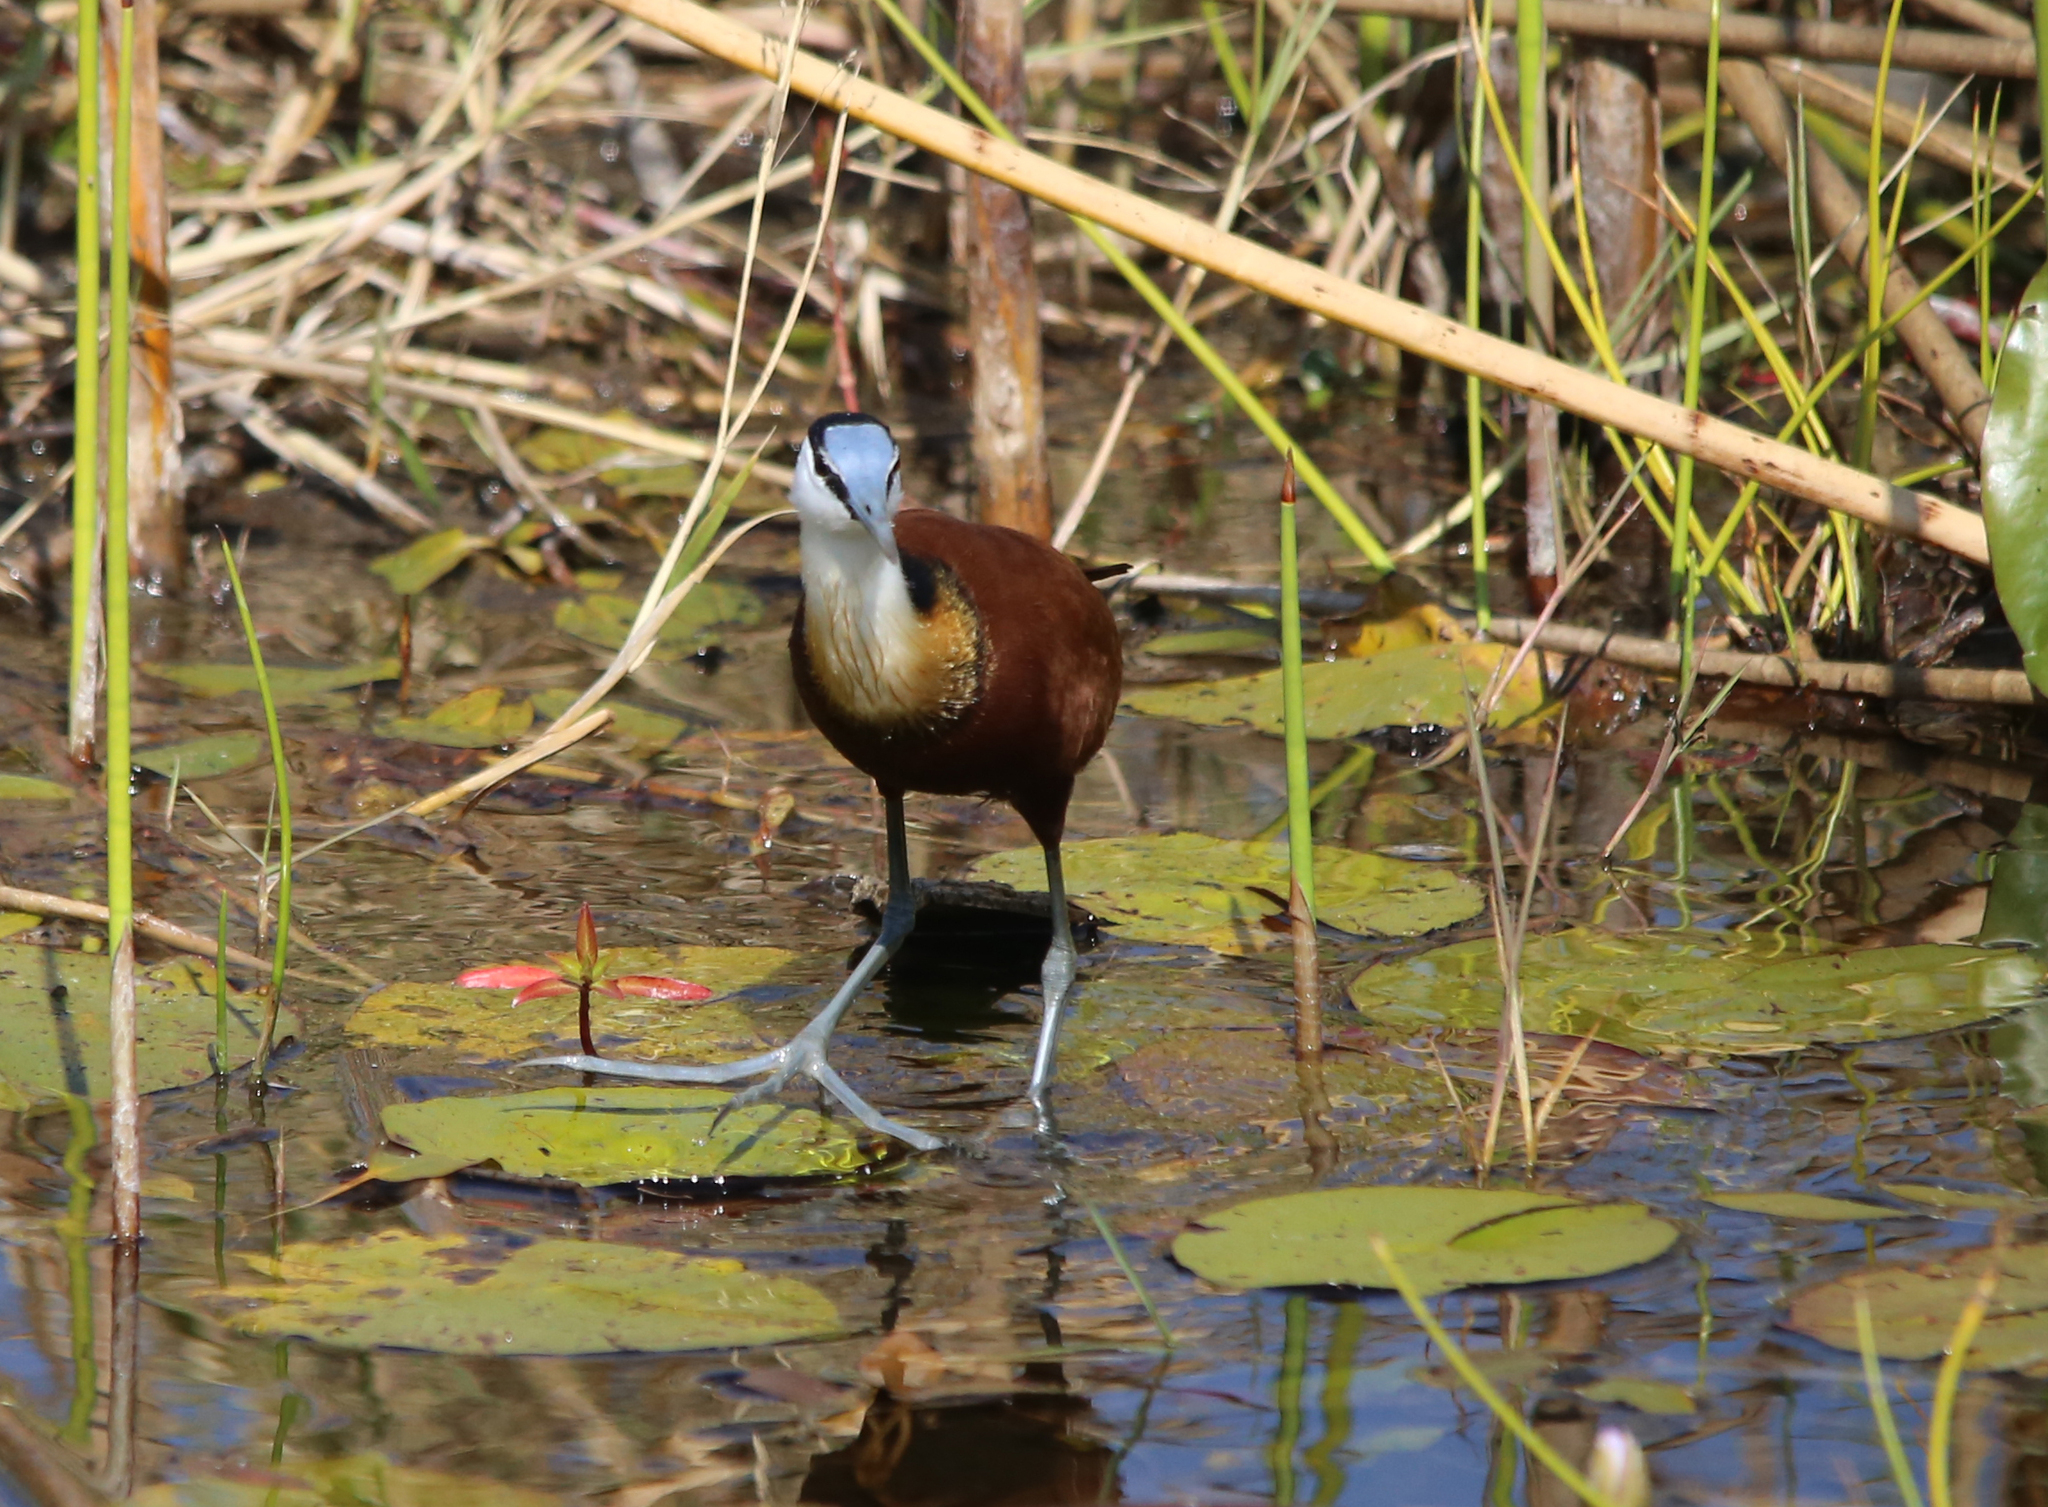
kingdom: Animalia
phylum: Chordata
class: Aves
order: Charadriiformes
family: Jacanidae
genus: Actophilornis
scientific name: Actophilornis africanus
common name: African jacana
